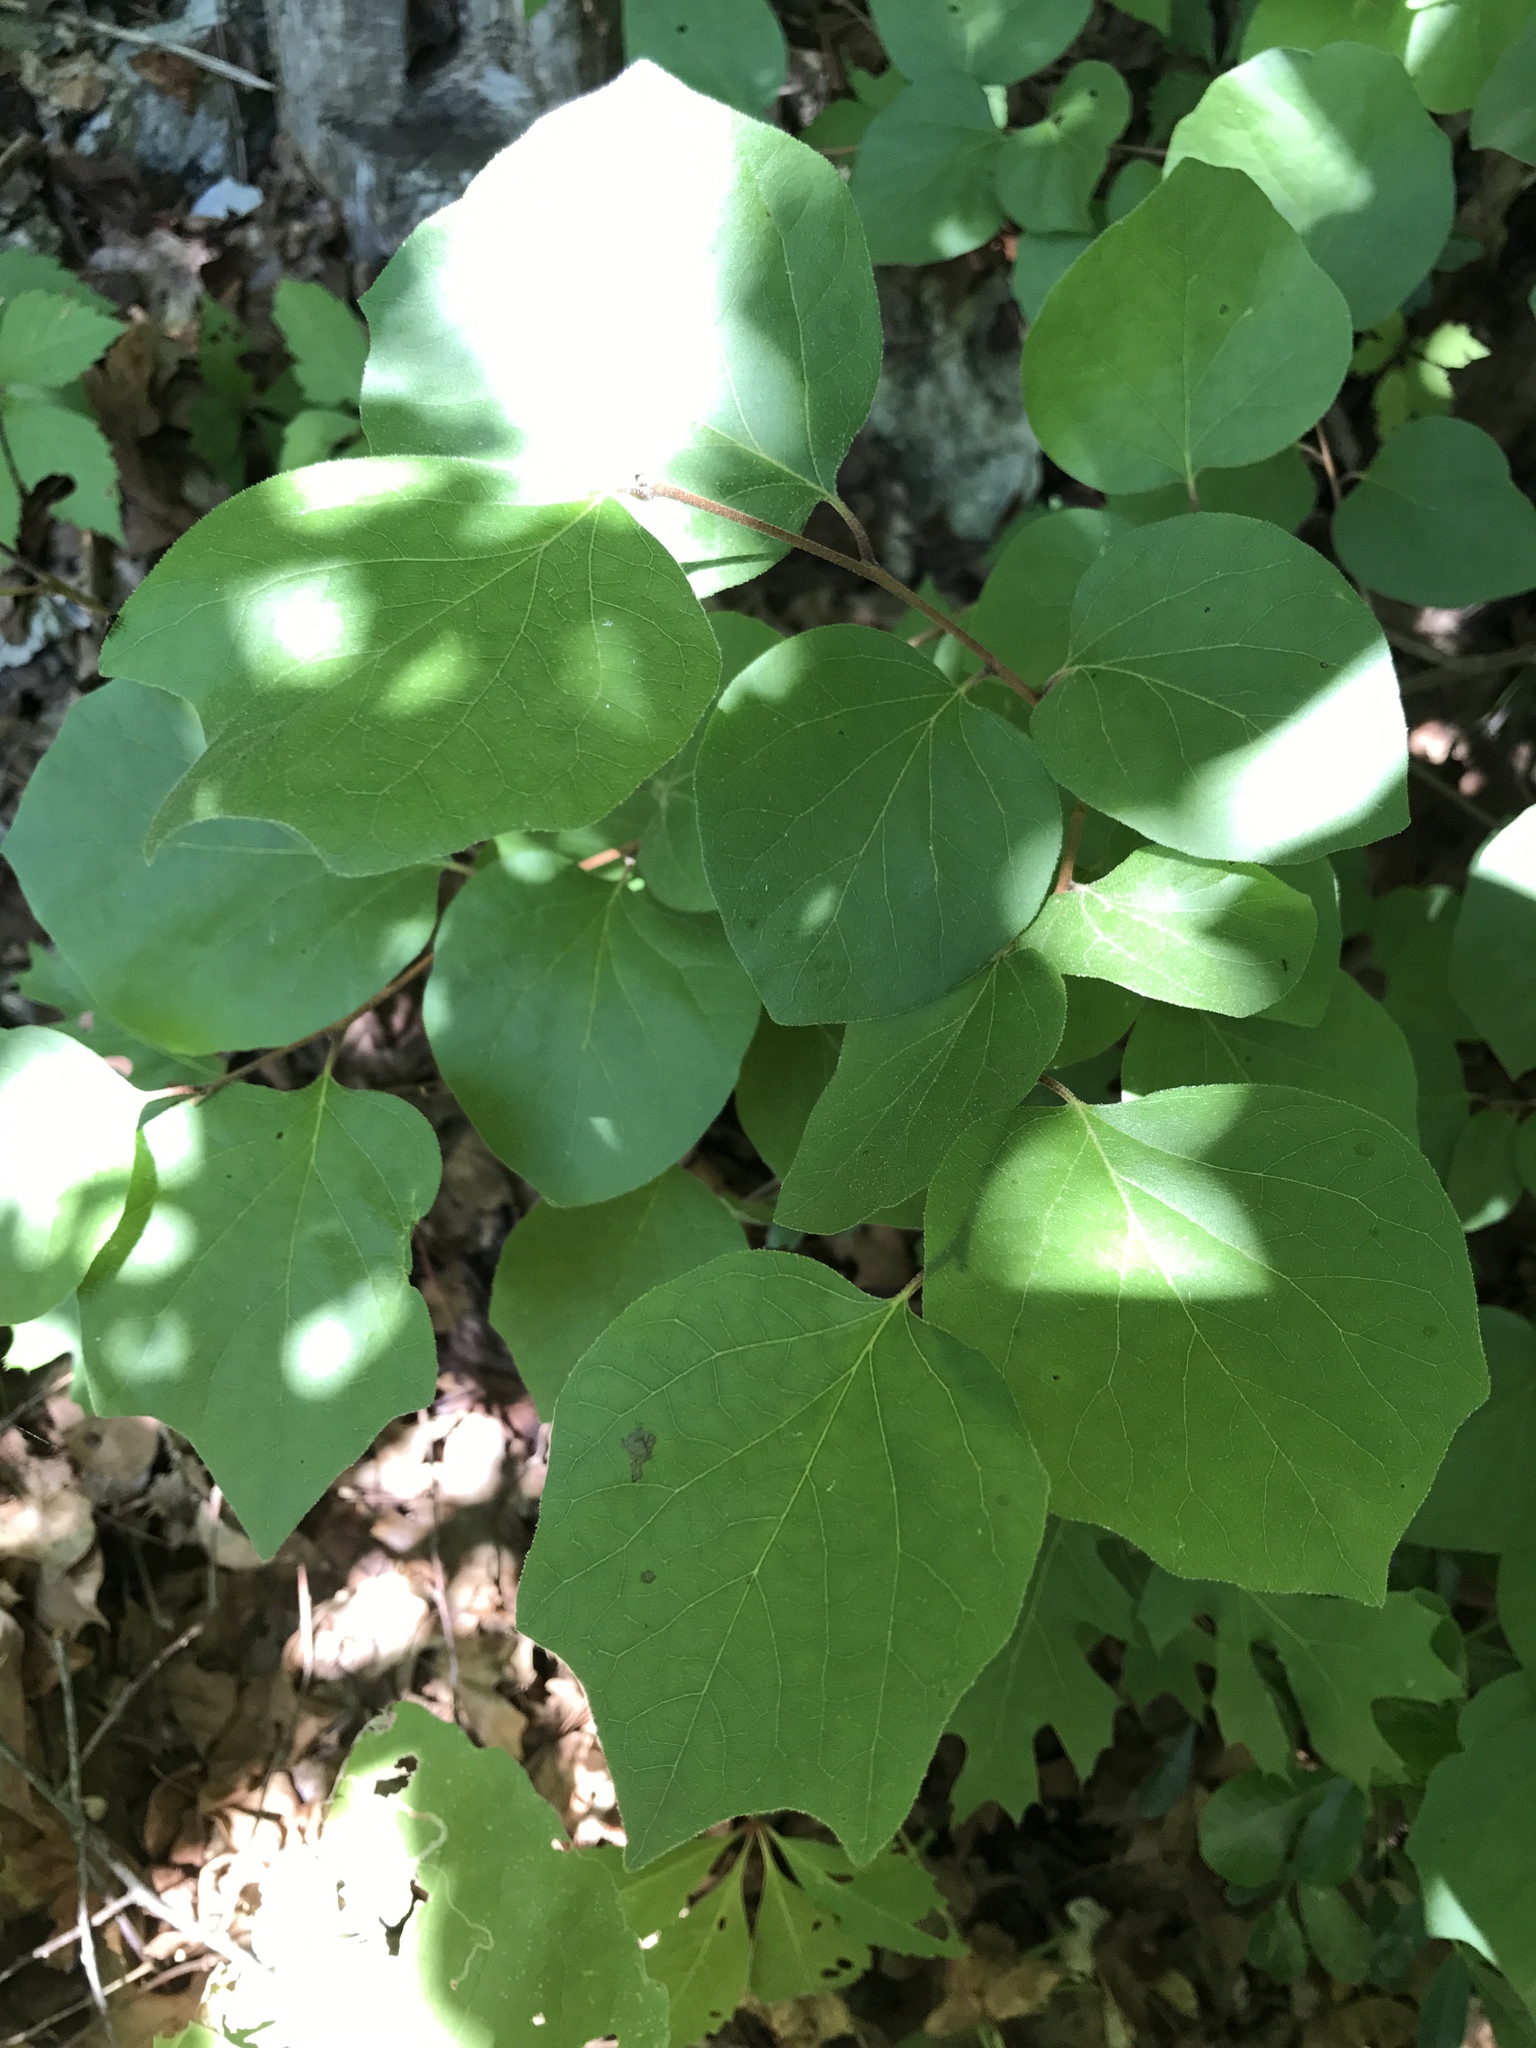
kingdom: Plantae
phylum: Tracheophyta
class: Magnoliopsida
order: Ericales
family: Styracaceae
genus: Styrax
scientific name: Styrax platanifolius
